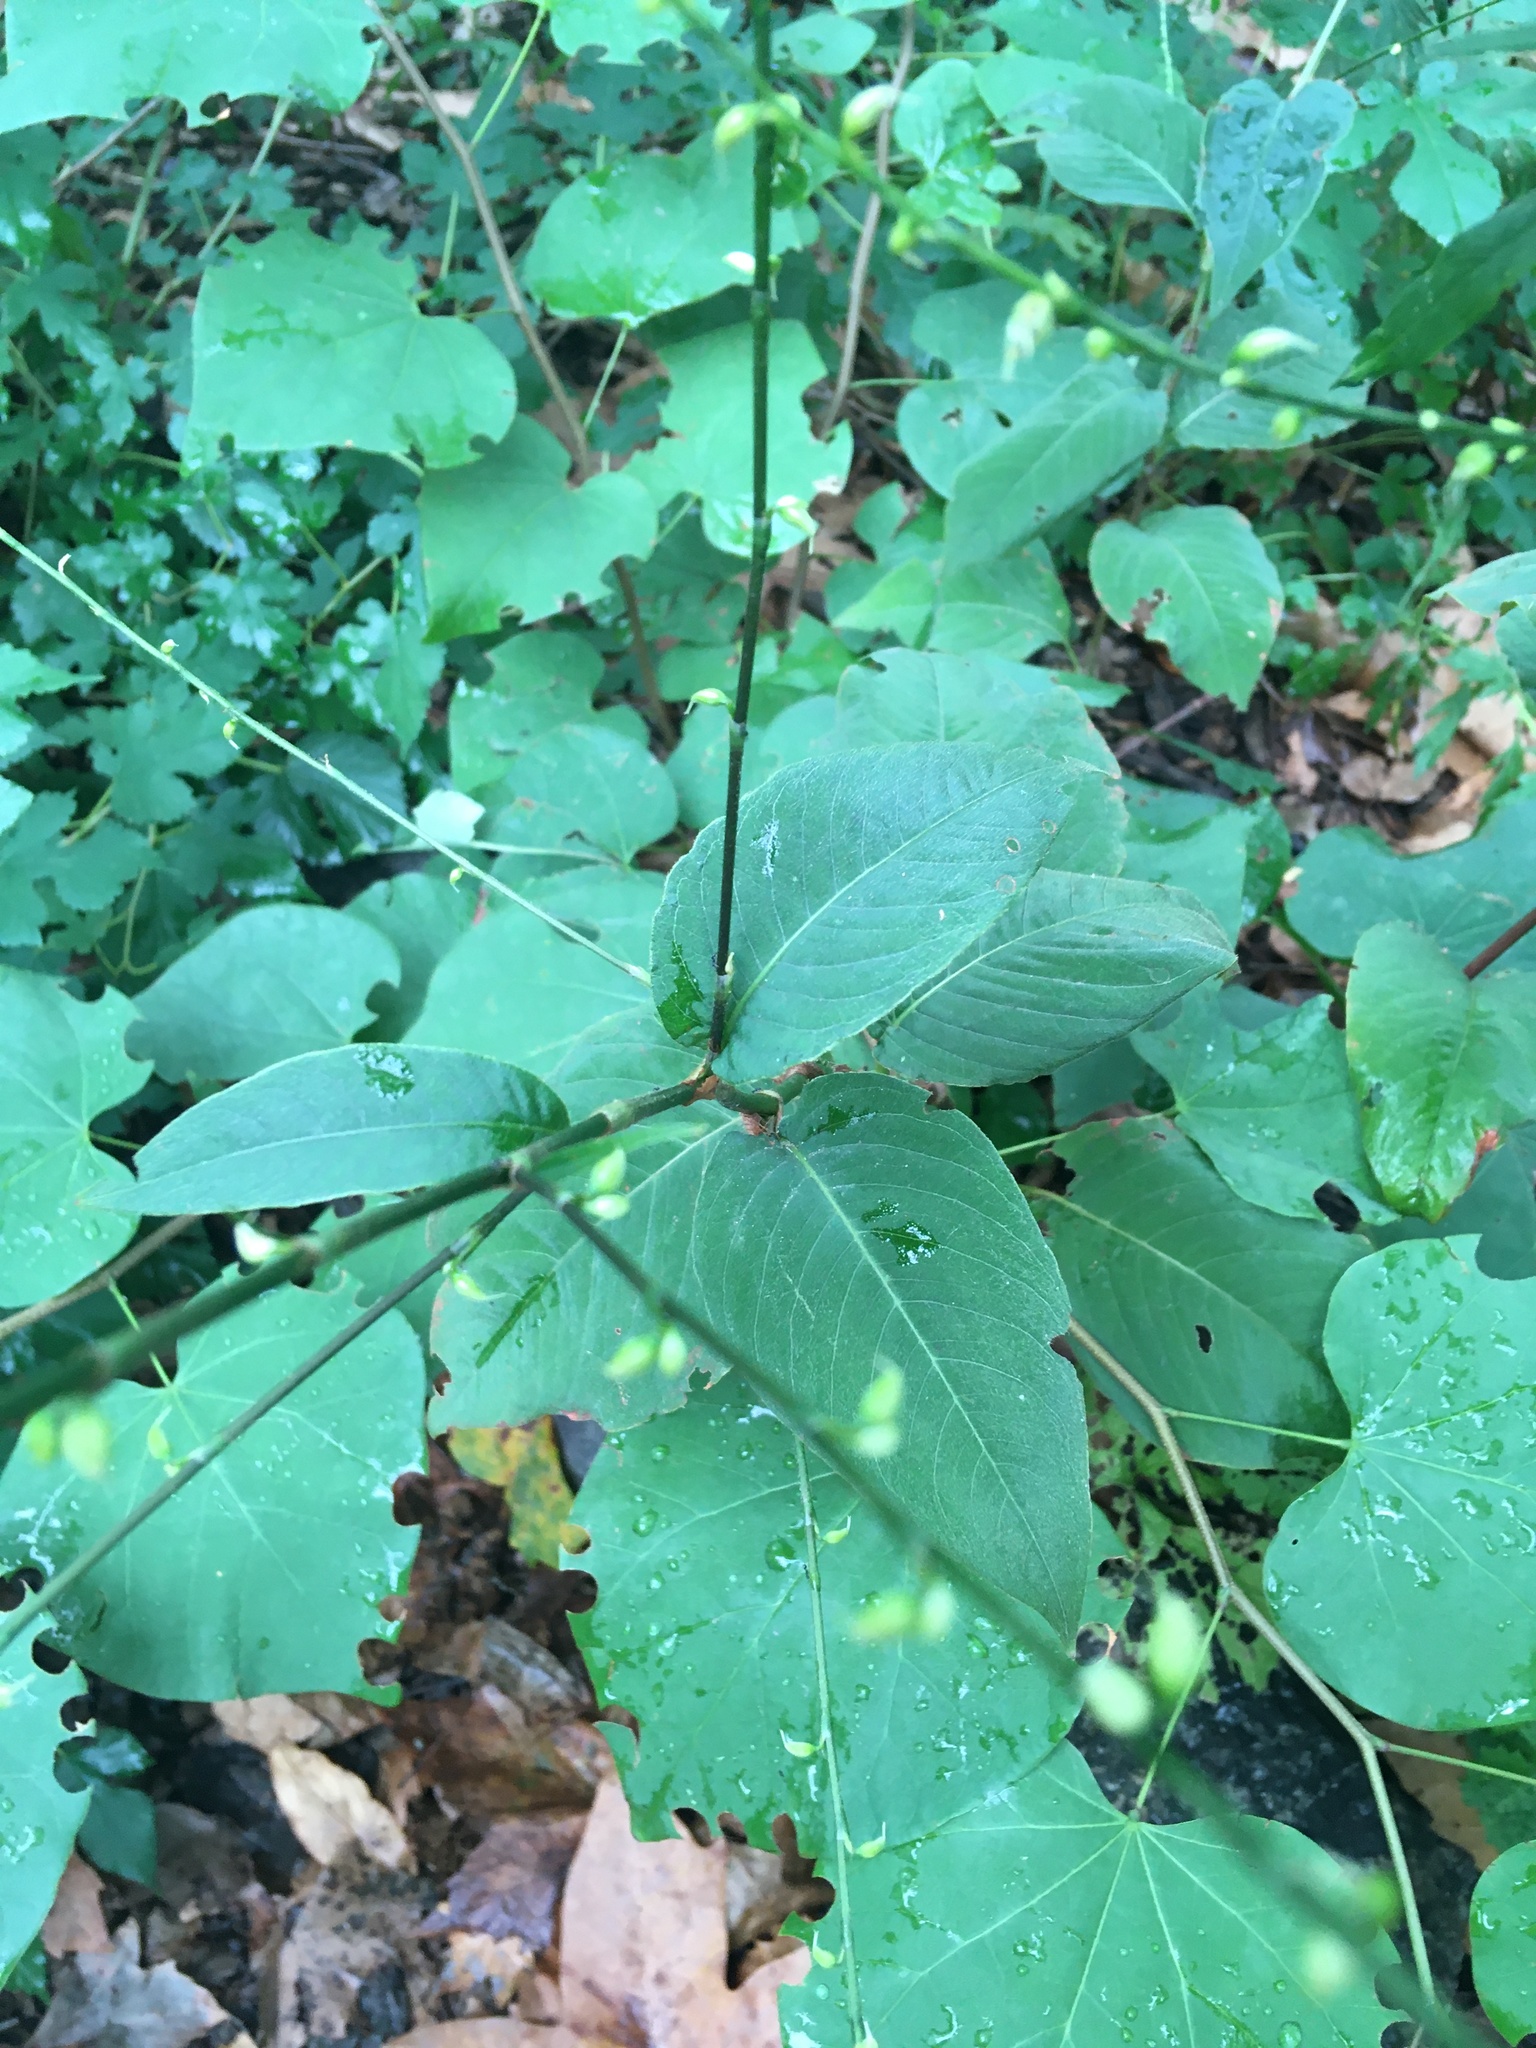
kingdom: Plantae
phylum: Tracheophyta
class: Magnoliopsida
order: Caryophyllales
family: Polygonaceae
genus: Persicaria
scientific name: Persicaria virginiana
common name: Jumpseed
